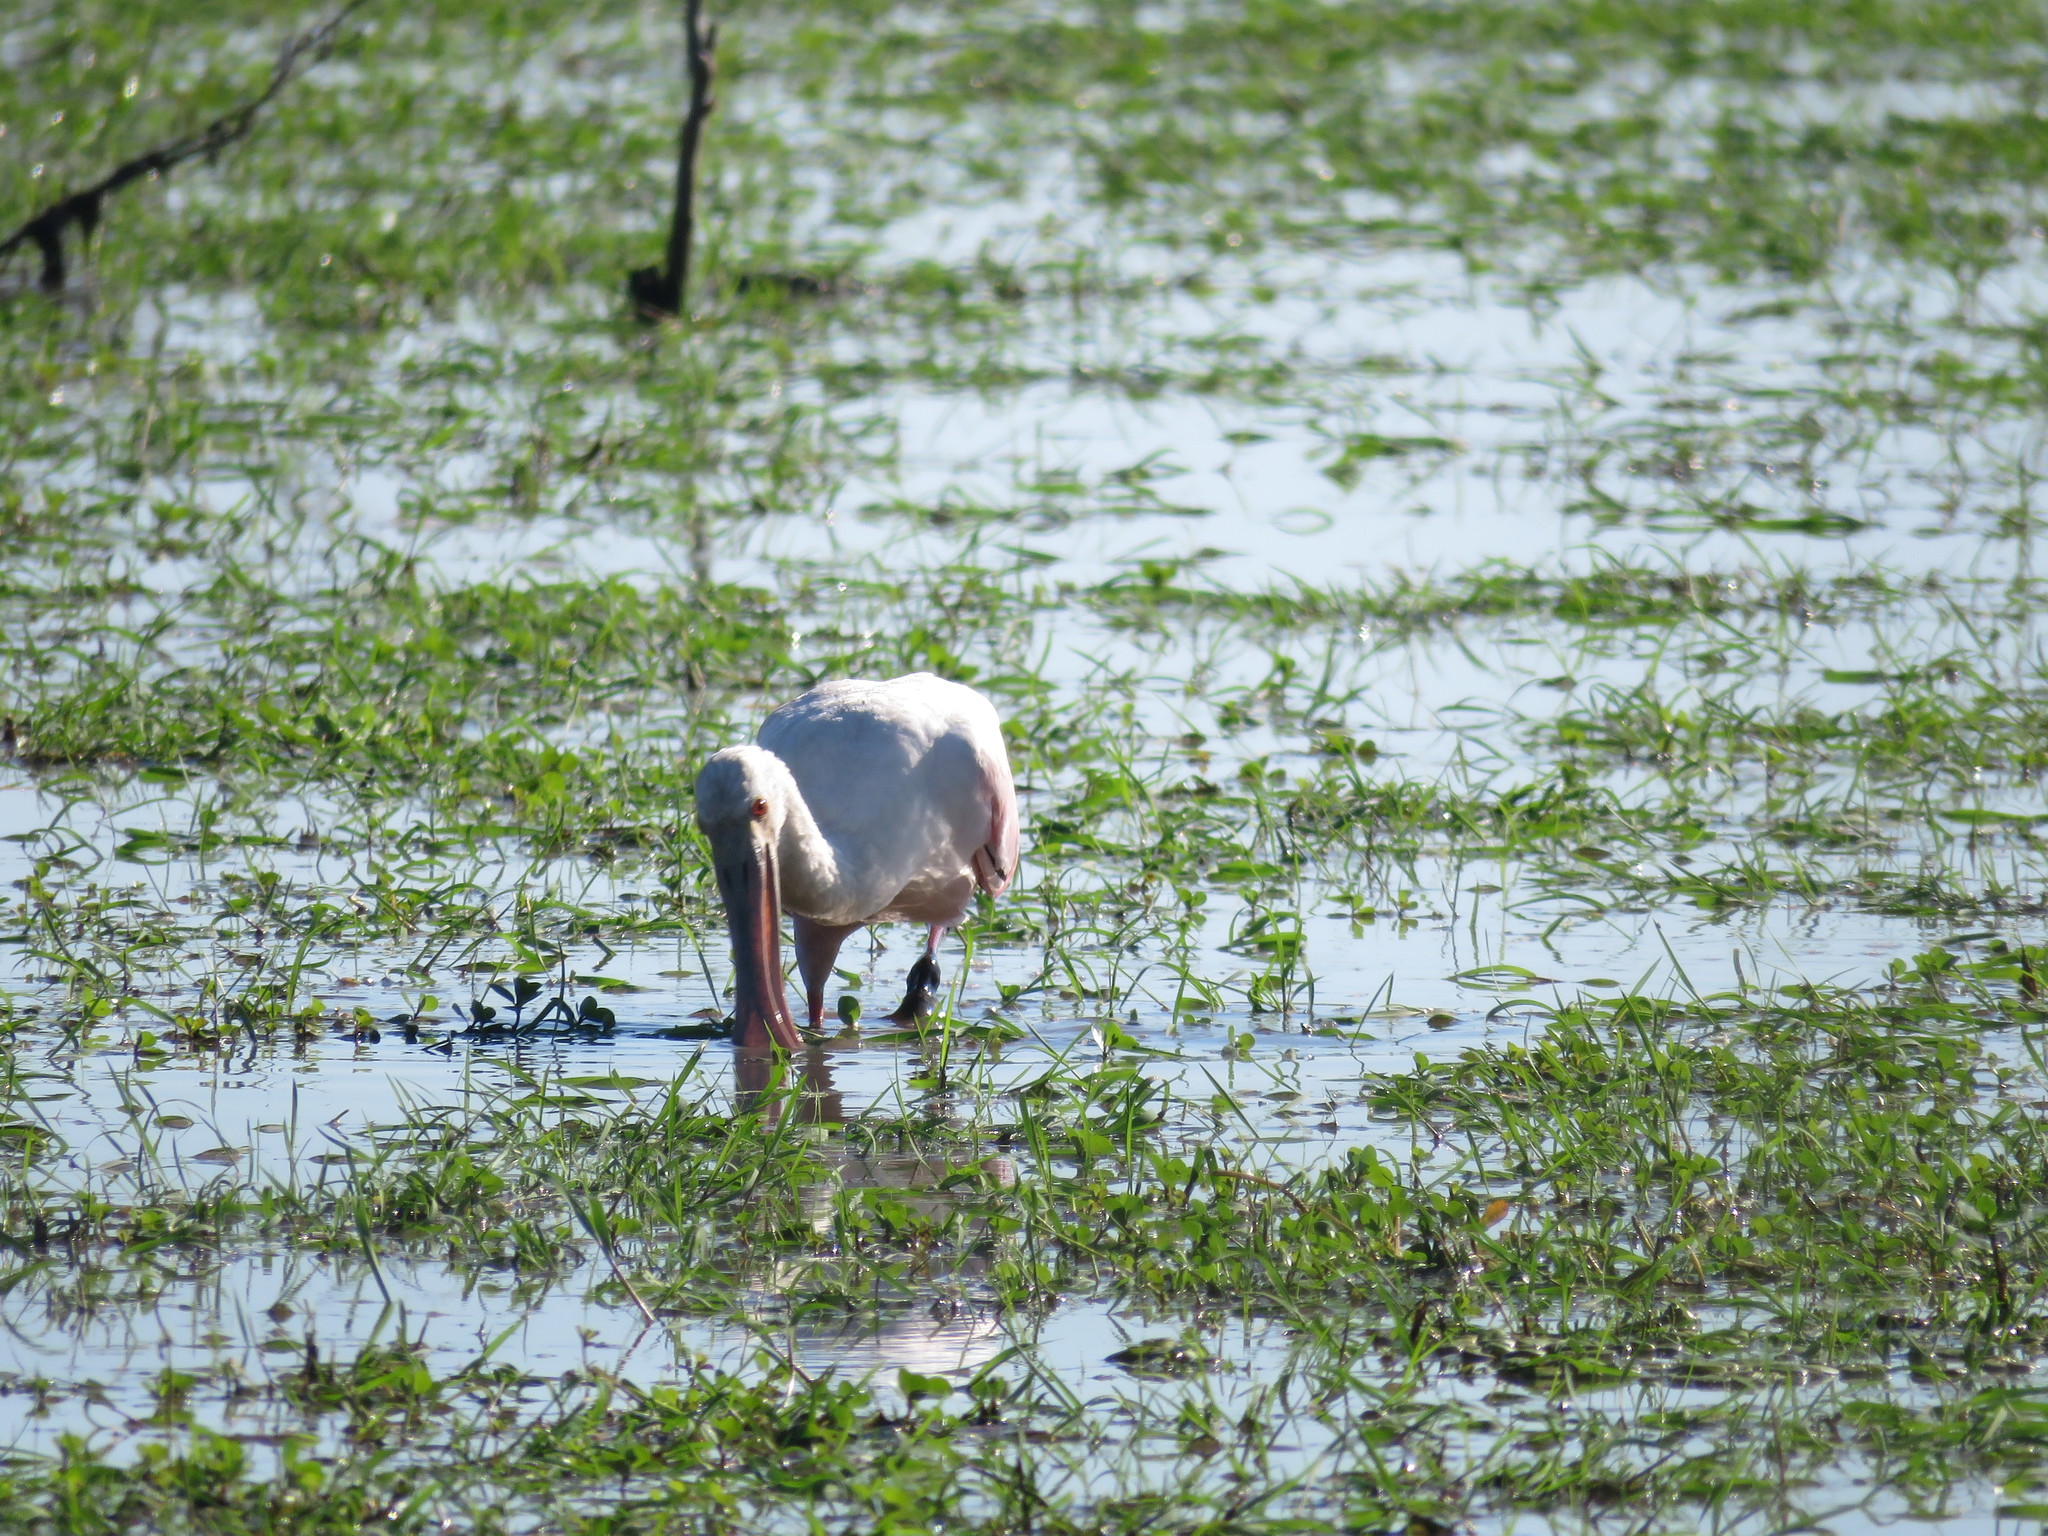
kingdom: Animalia
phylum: Chordata
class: Aves
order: Pelecaniformes
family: Threskiornithidae
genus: Platalea
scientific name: Platalea ajaja
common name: Roseate spoonbill
